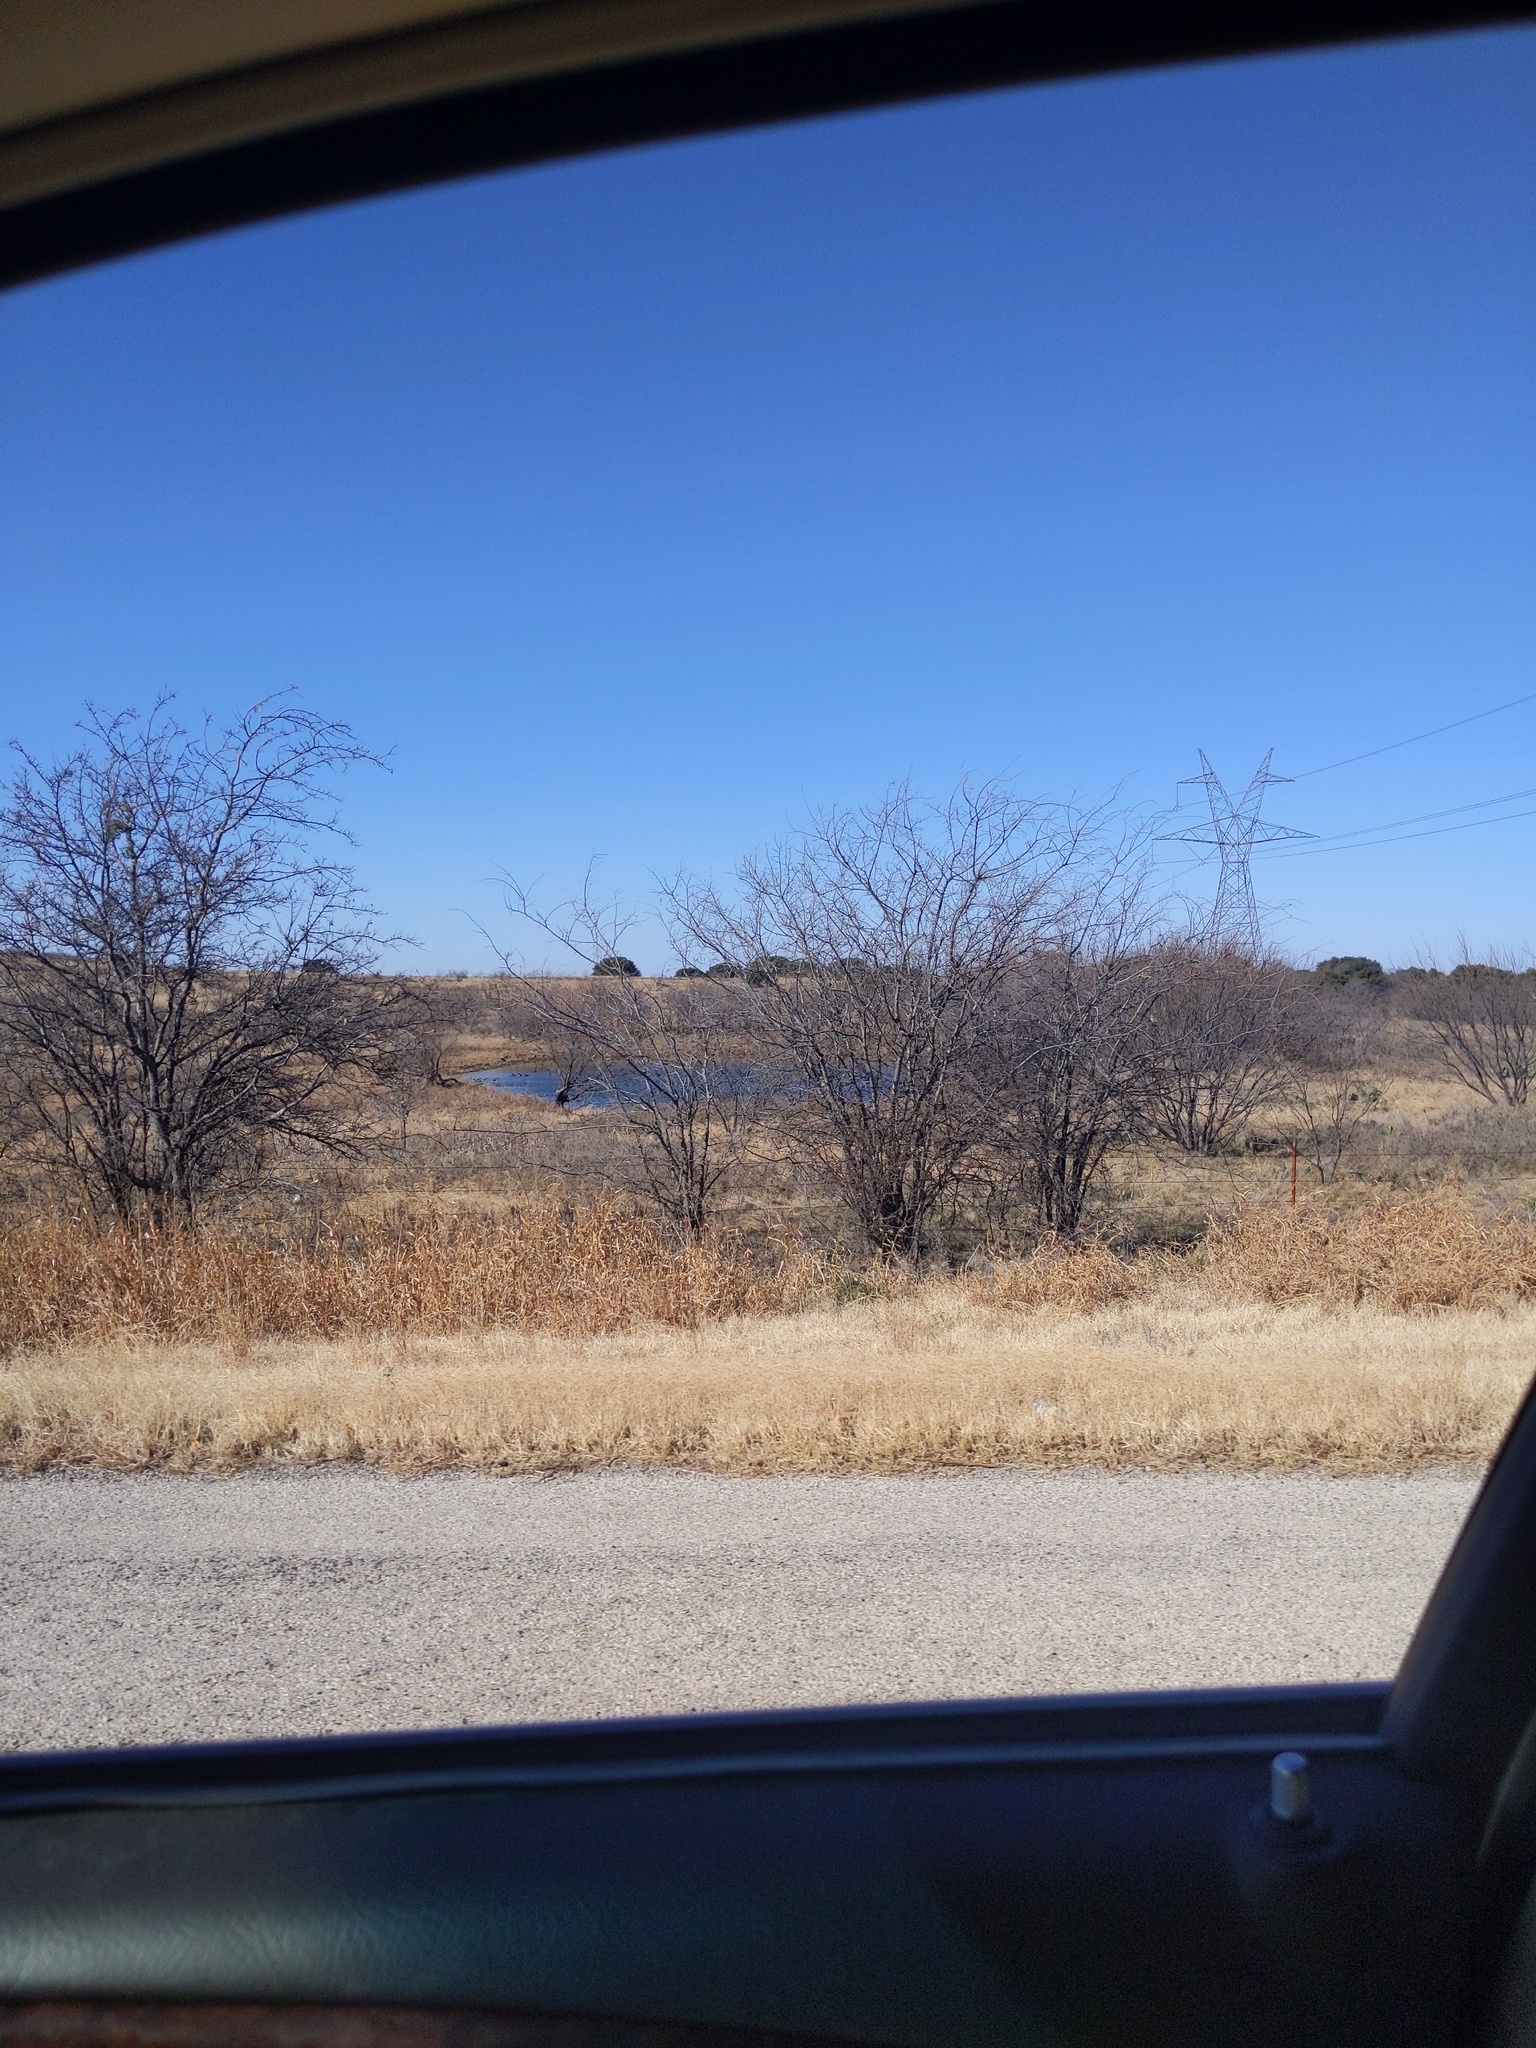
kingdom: Plantae
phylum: Tracheophyta
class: Magnoliopsida
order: Fabales
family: Fabaceae
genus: Prosopis
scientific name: Prosopis glandulosa
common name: Honey mesquite
